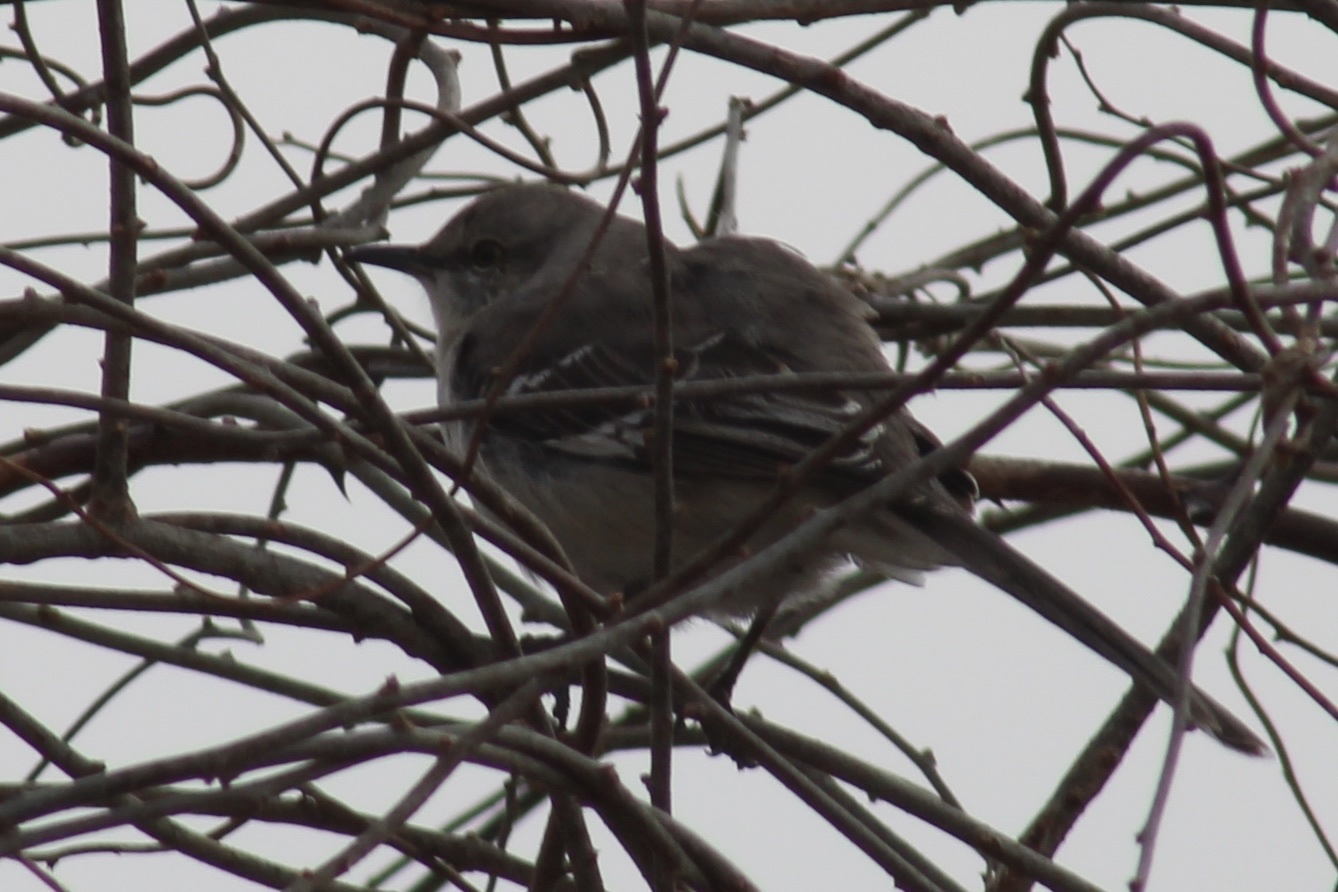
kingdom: Animalia
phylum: Chordata
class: Aves
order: Passeriformes
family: Mimidae
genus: Mimus
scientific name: Mimus polyglottos
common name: Northern mockingbird
